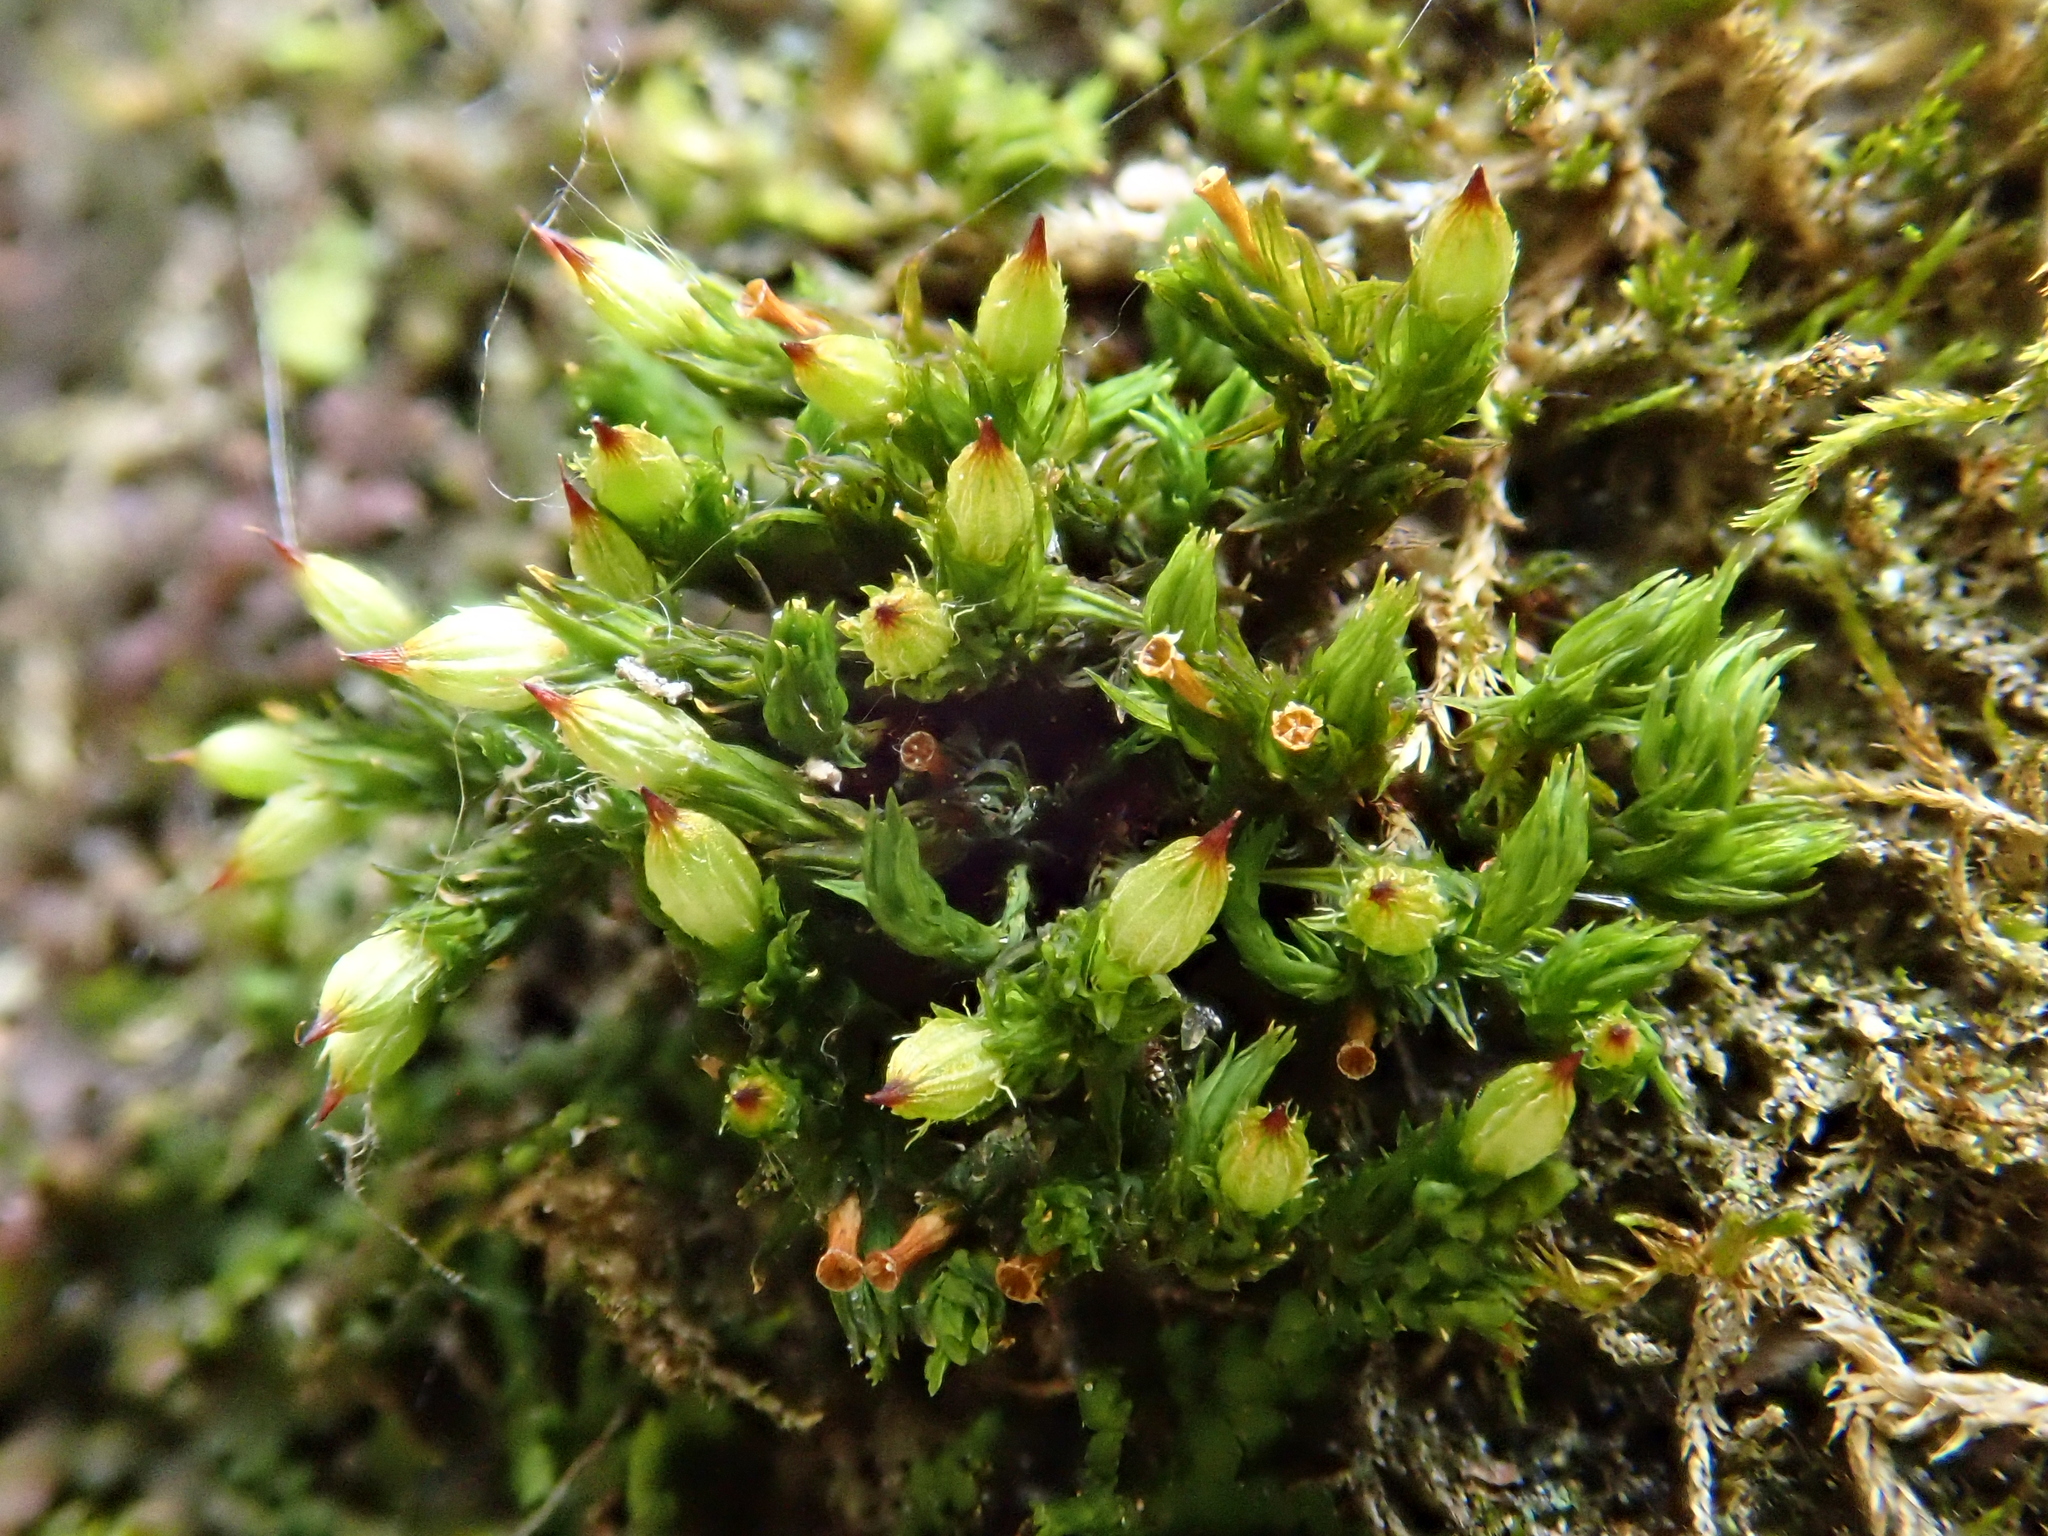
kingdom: Plantae
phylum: Bryophyta
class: Bryopsida
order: Orthotrichales
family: Orthotrichaceae
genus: Orthotrichum
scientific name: Orthotrichum stramineum
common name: Straw bristle-moss
